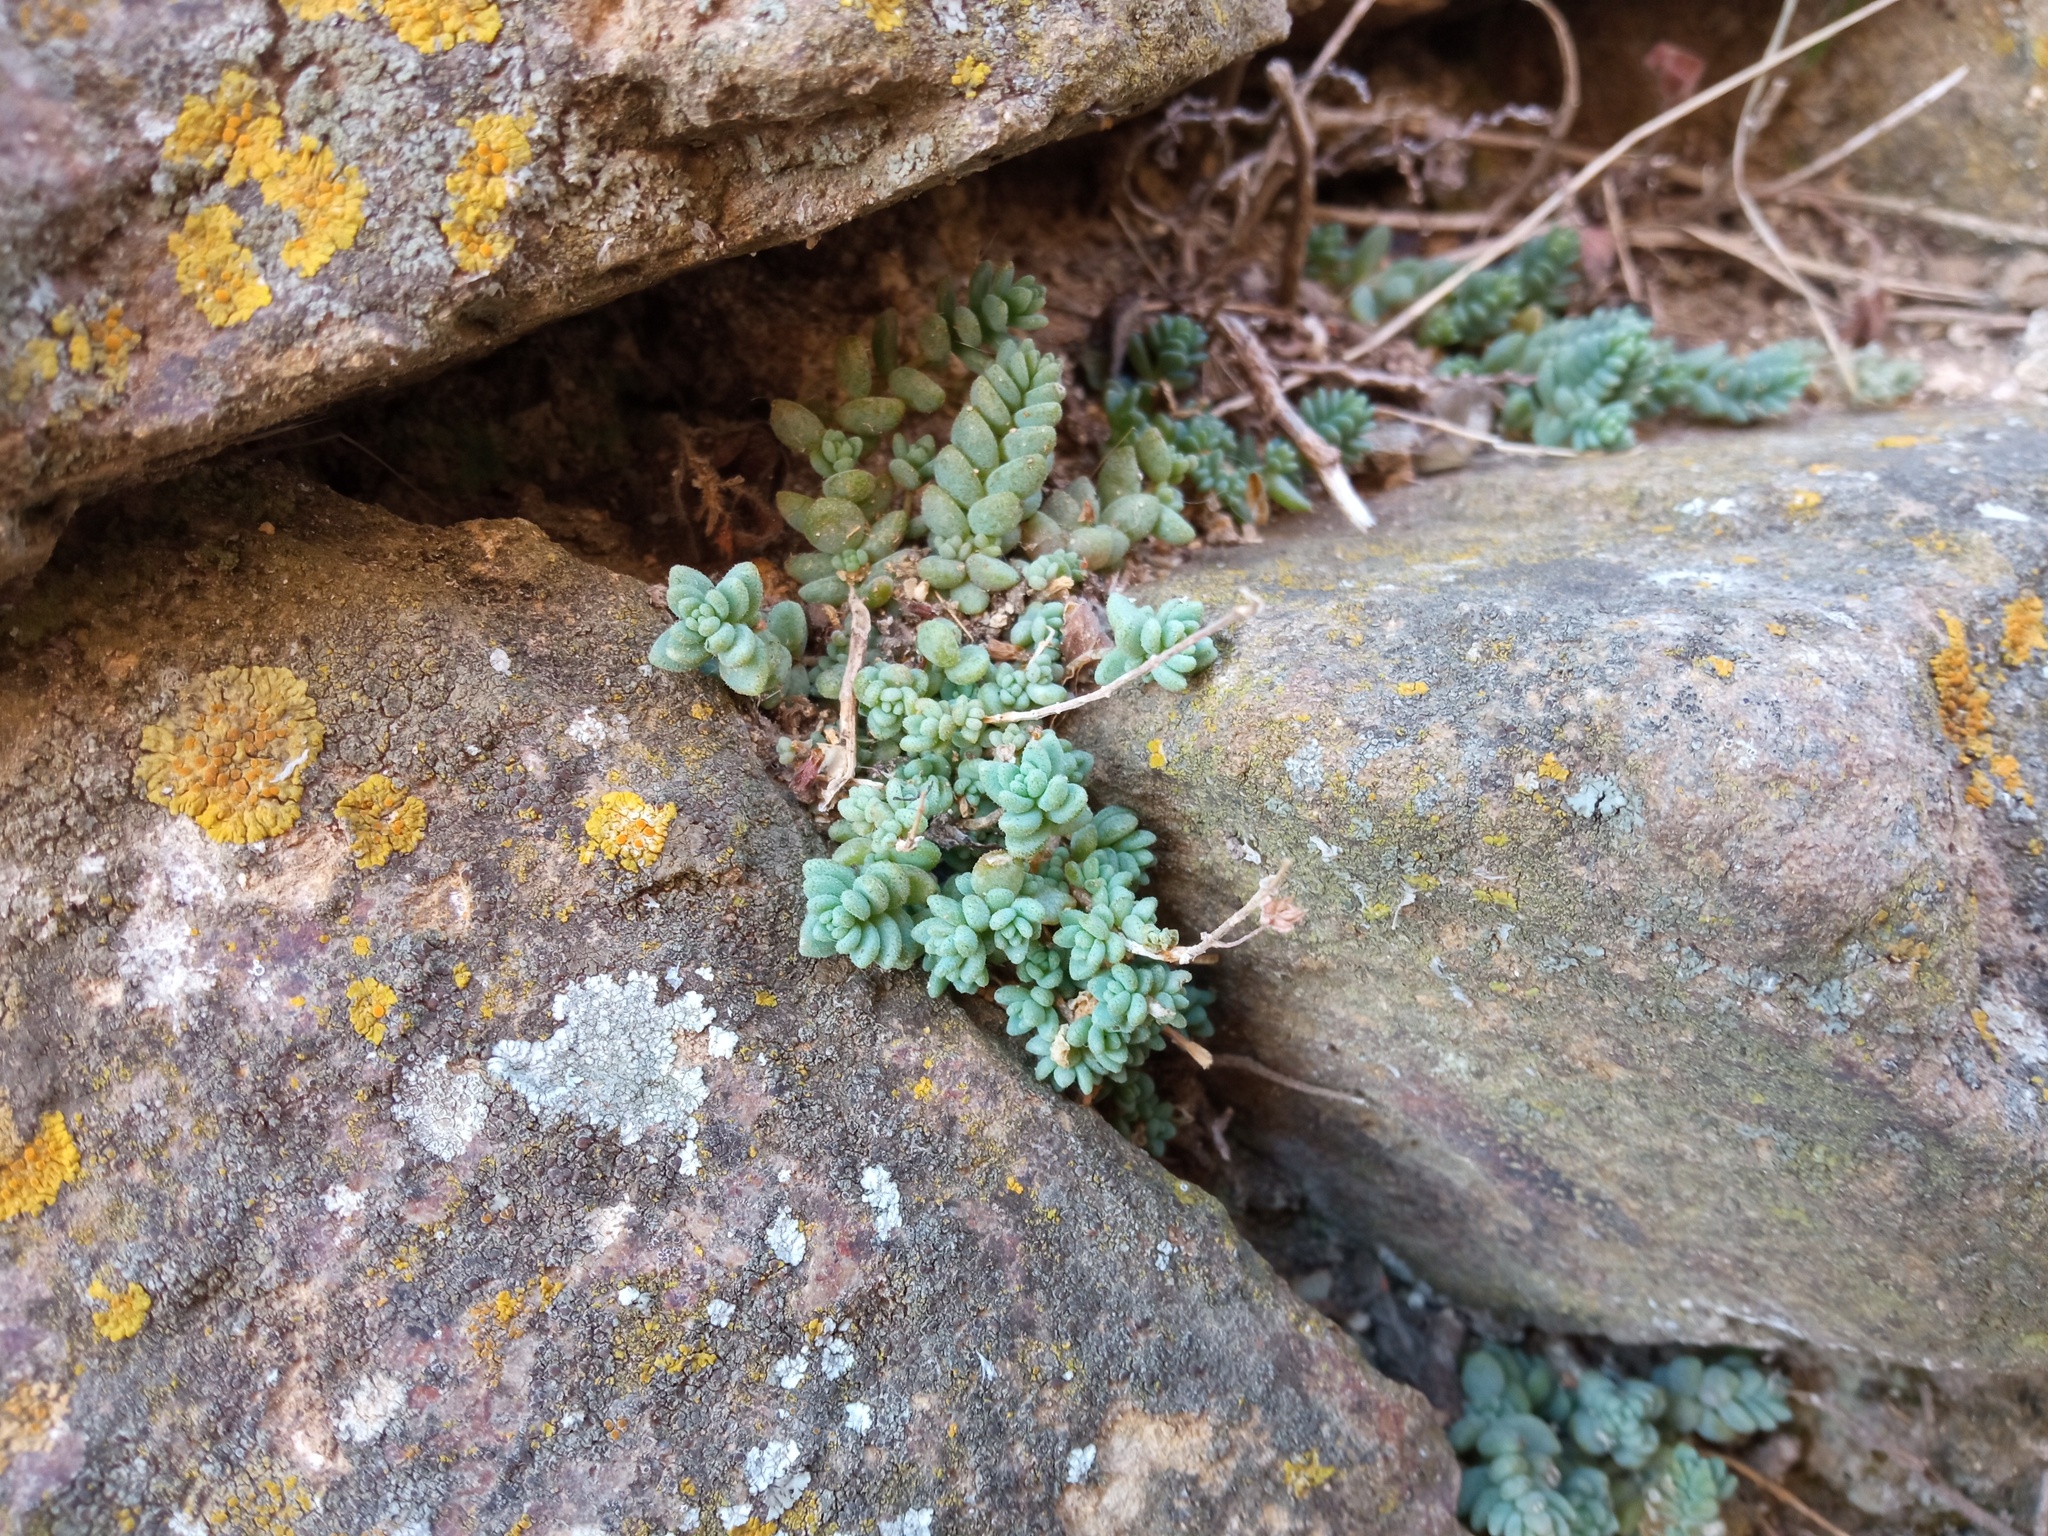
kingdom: Plantae
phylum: Tracheophyta
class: Magnoliopsida
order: Saxifragales
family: Crassulaceae
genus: Sedum
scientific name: Sedum dasyphyllum
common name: Thick-leaf stonecrop
